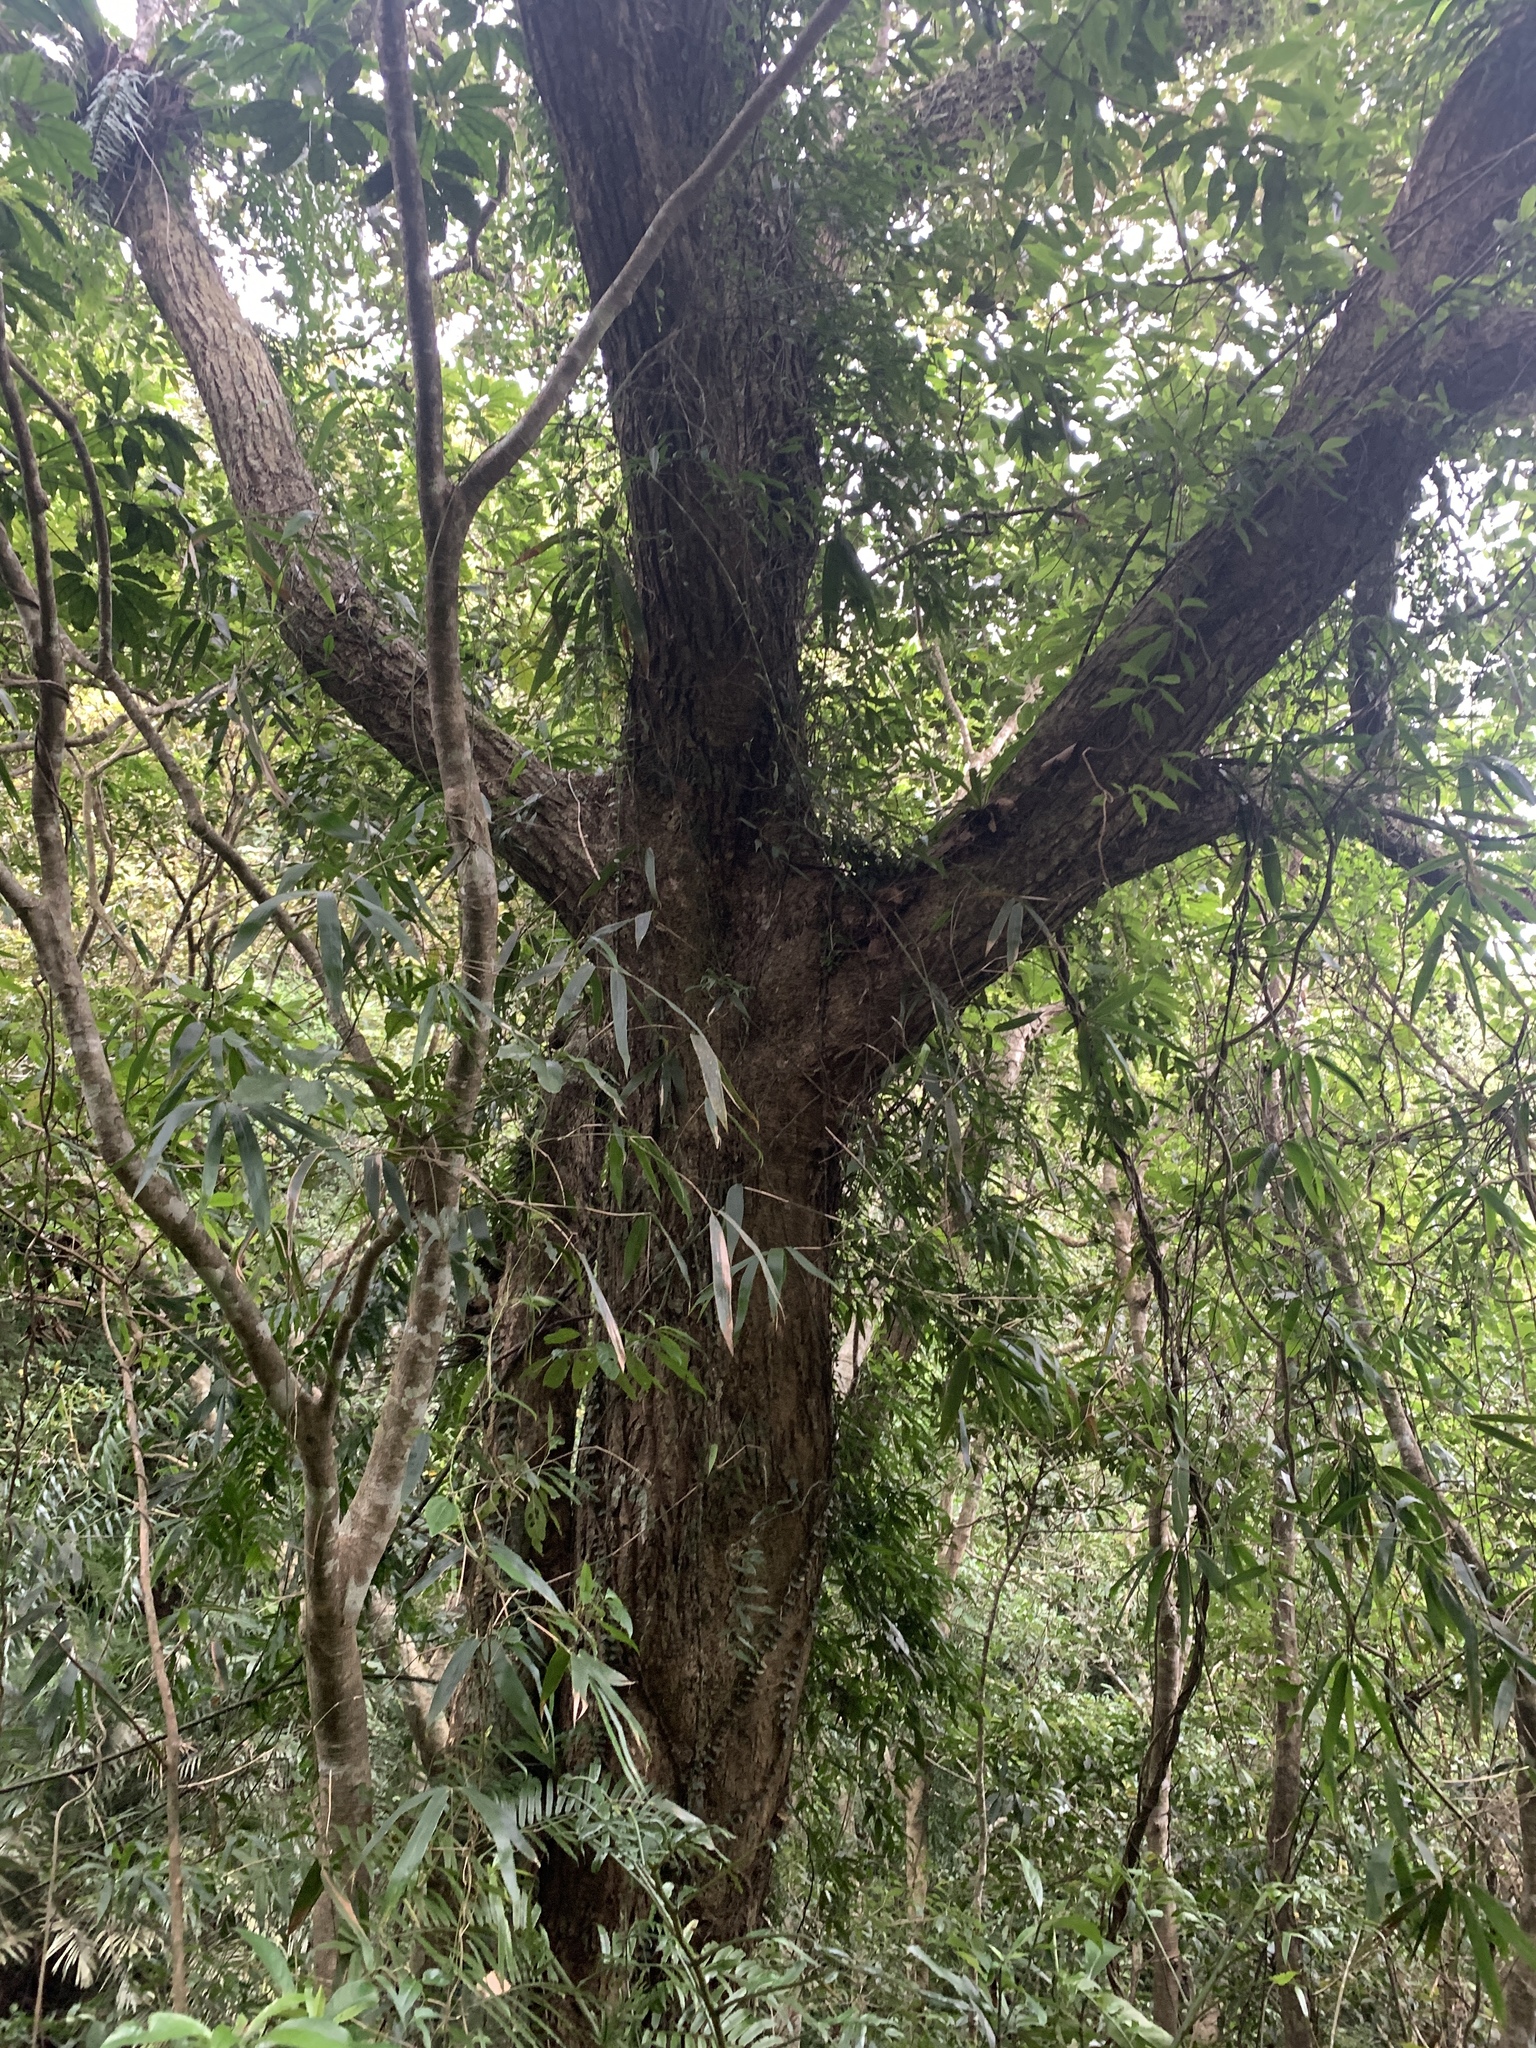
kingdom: Plantae
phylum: Tracheophyta
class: Magnoliopsida
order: Fagales
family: Fagaceae
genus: Castanopsis
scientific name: Castanopsis indica
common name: Indian-chestnut
